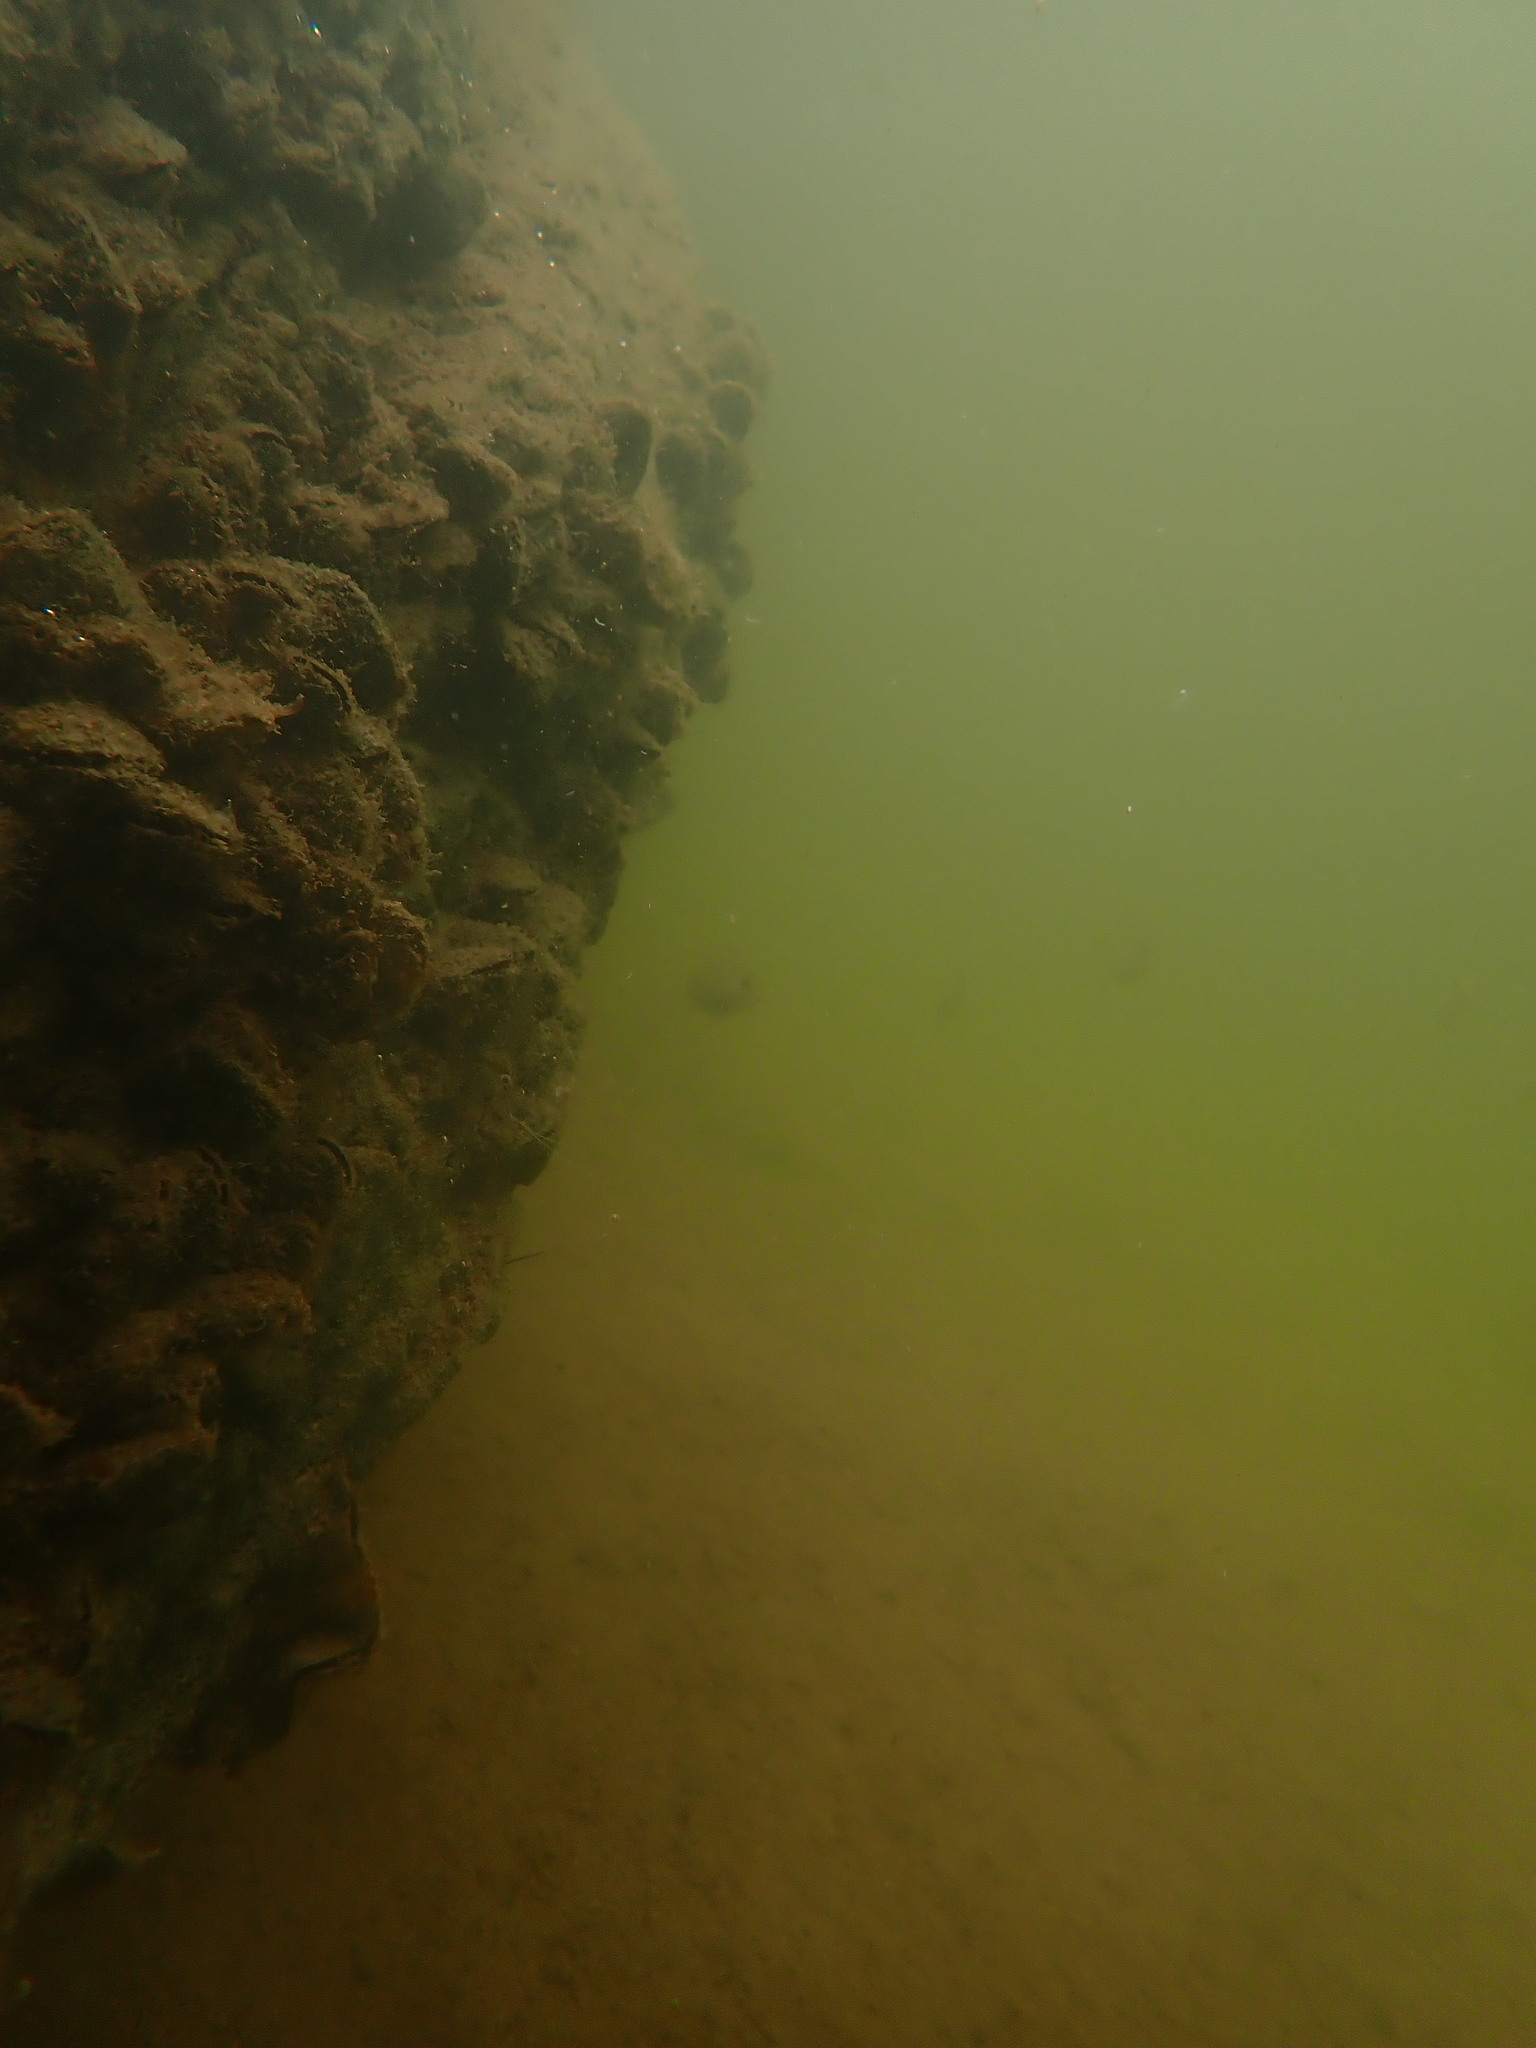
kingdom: Animalia
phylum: Mollusca
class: Bivalvia
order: Mytilida
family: Mytilidae
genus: Xenostrobus
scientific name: Xenostrobus securis
